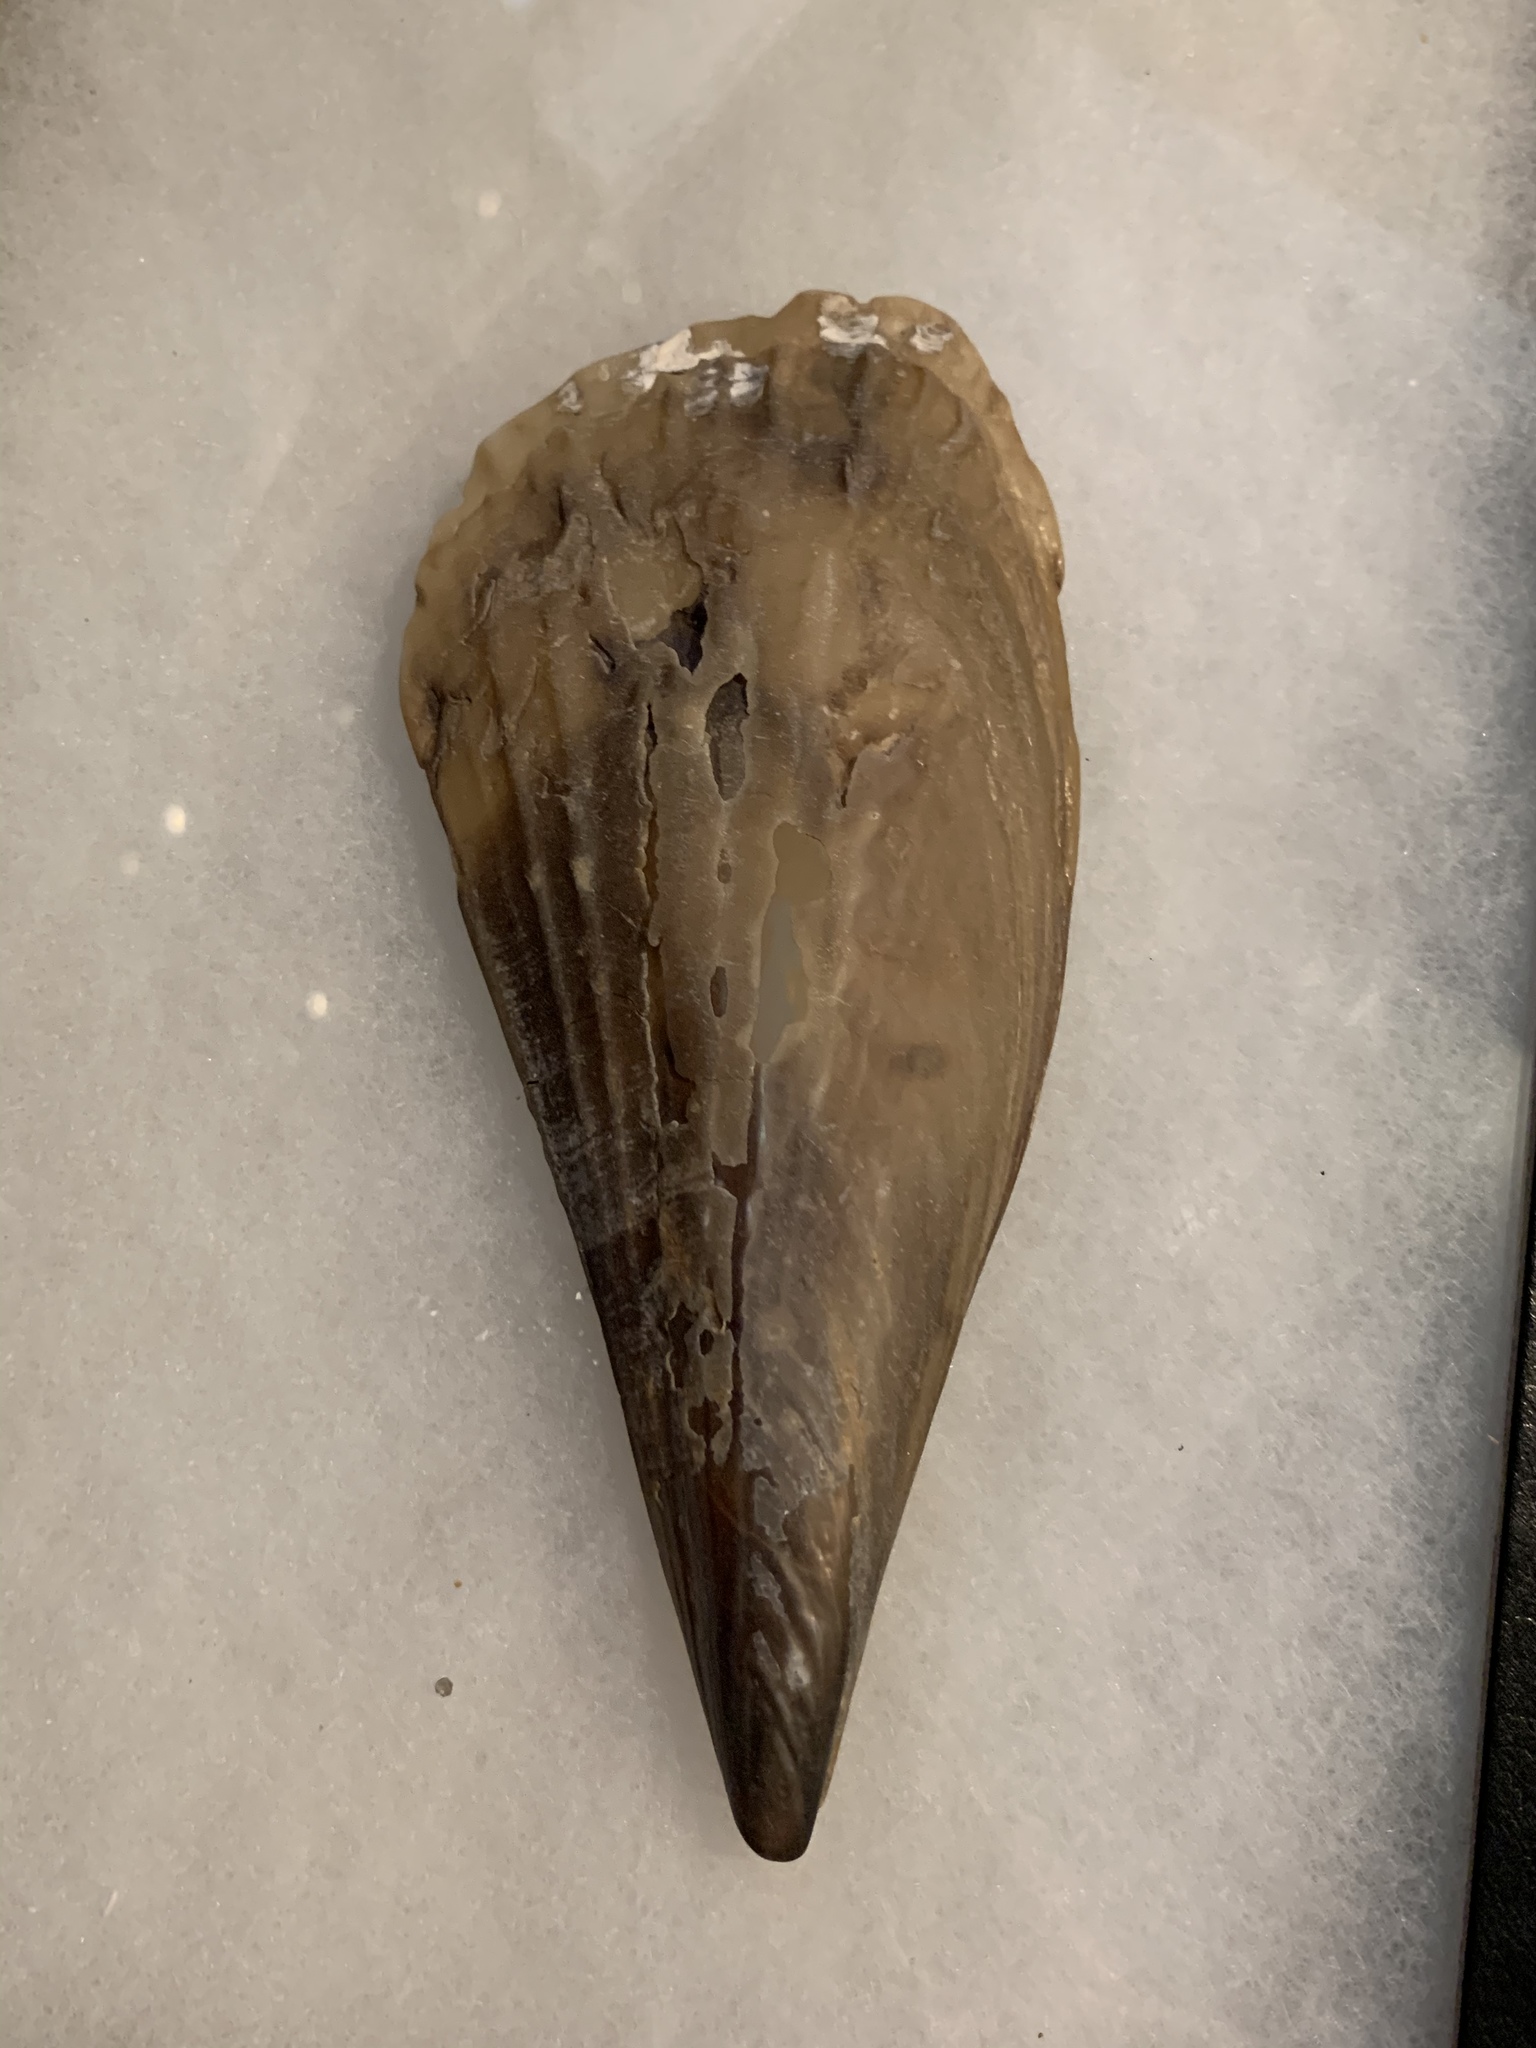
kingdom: Animalia
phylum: Mollusca
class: Bivalvia
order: Ostreida
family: Pinnidae
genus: Atrina
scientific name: Atrina rigida
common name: Stiff penshell
